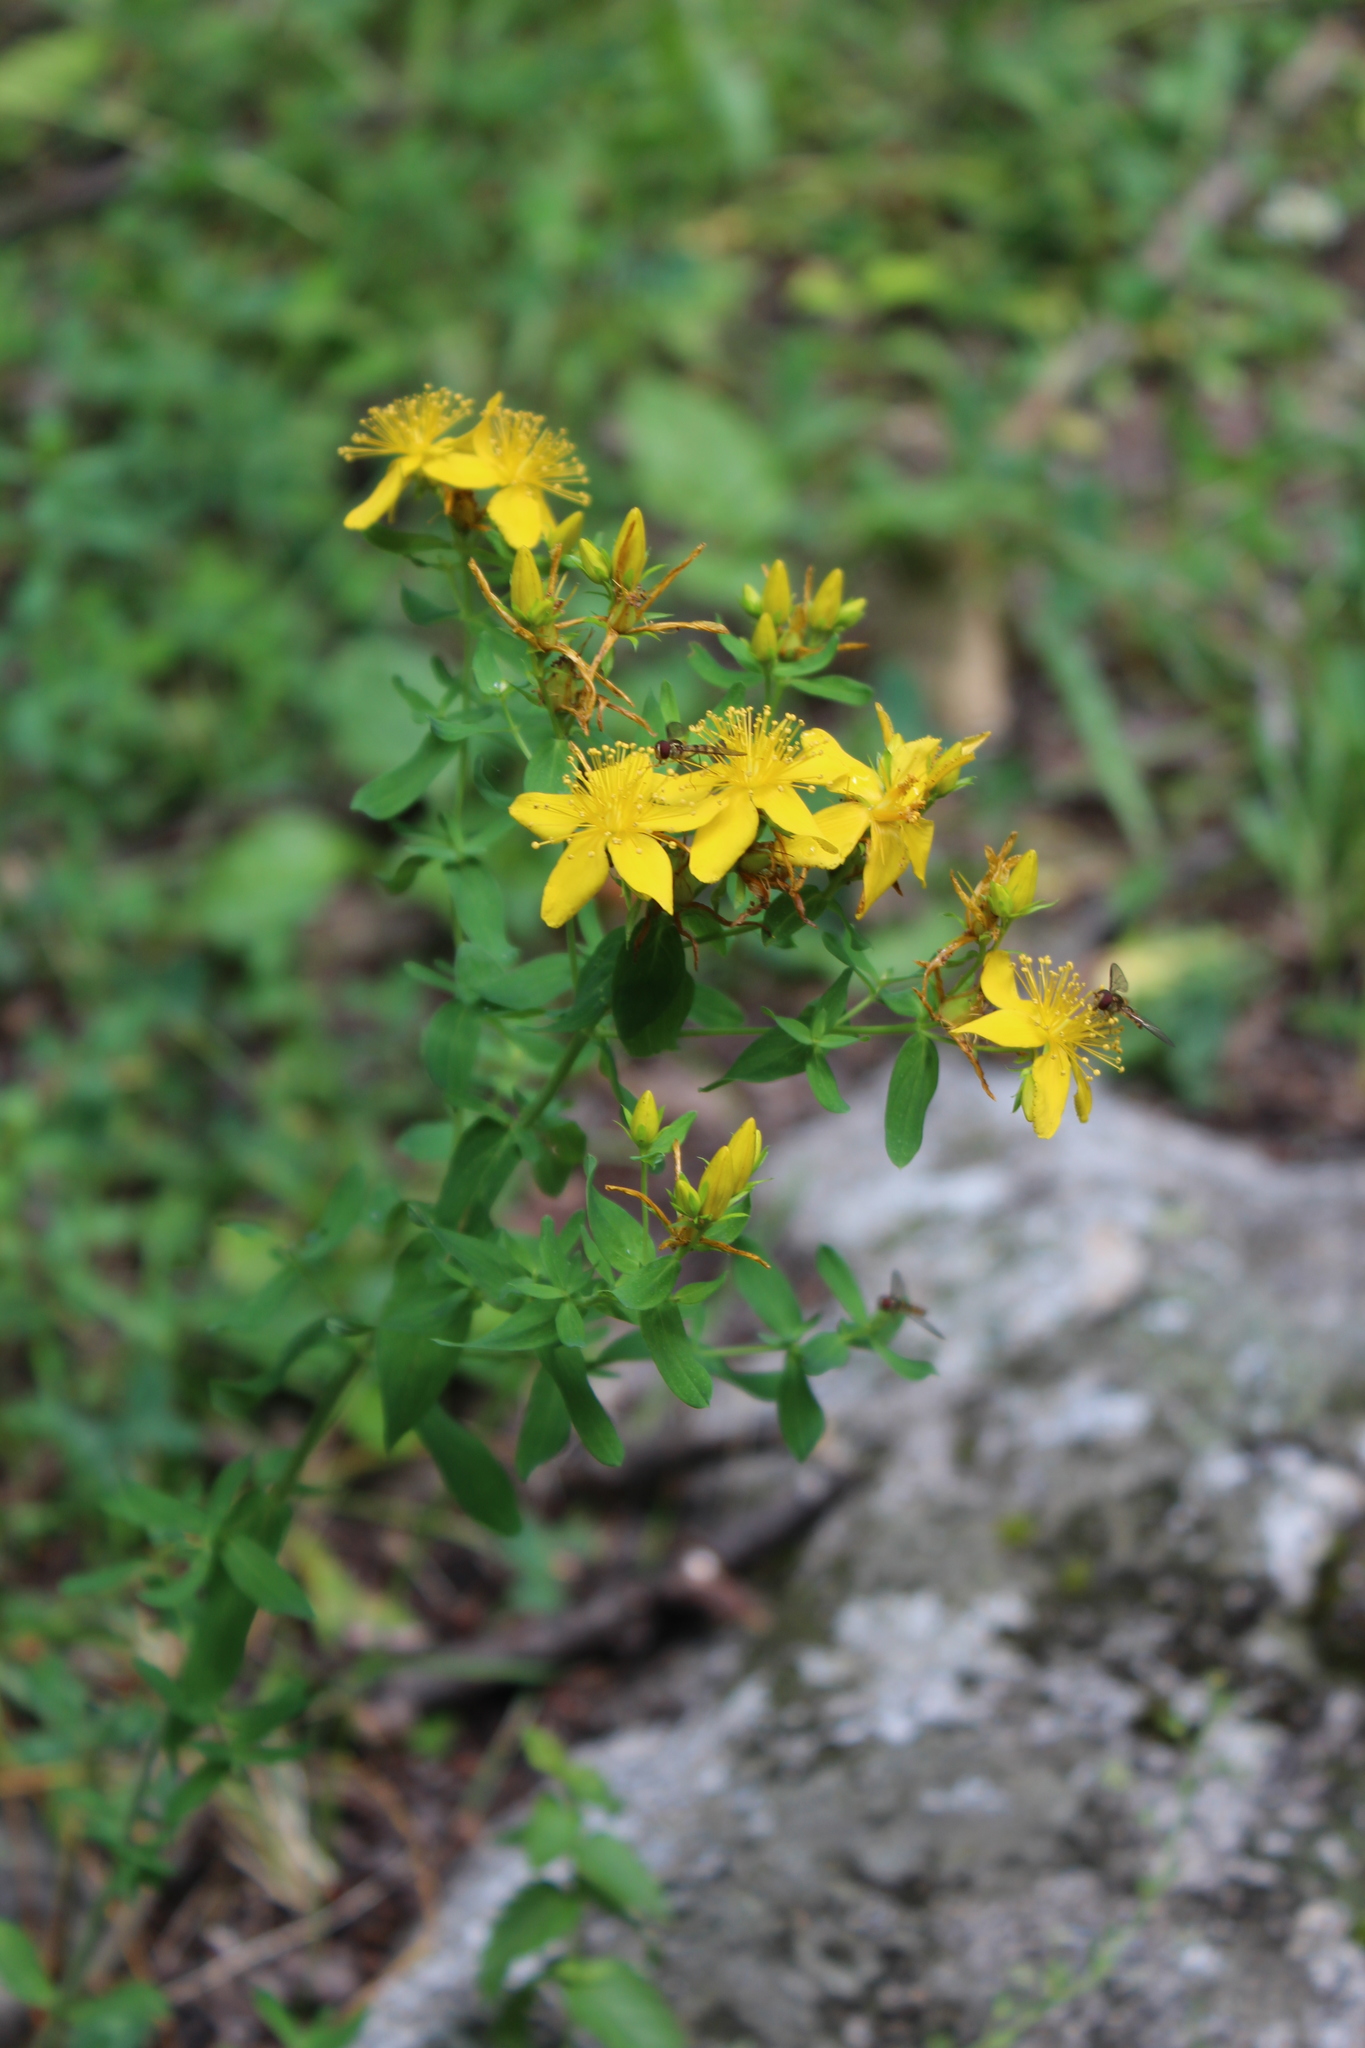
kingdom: Plantae
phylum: Tracheophyta
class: Magnoliopsida
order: Malpighiales
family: Hypericaceae
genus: Hypericum
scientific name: Hypericum perforatum
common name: Common st. johnswort
